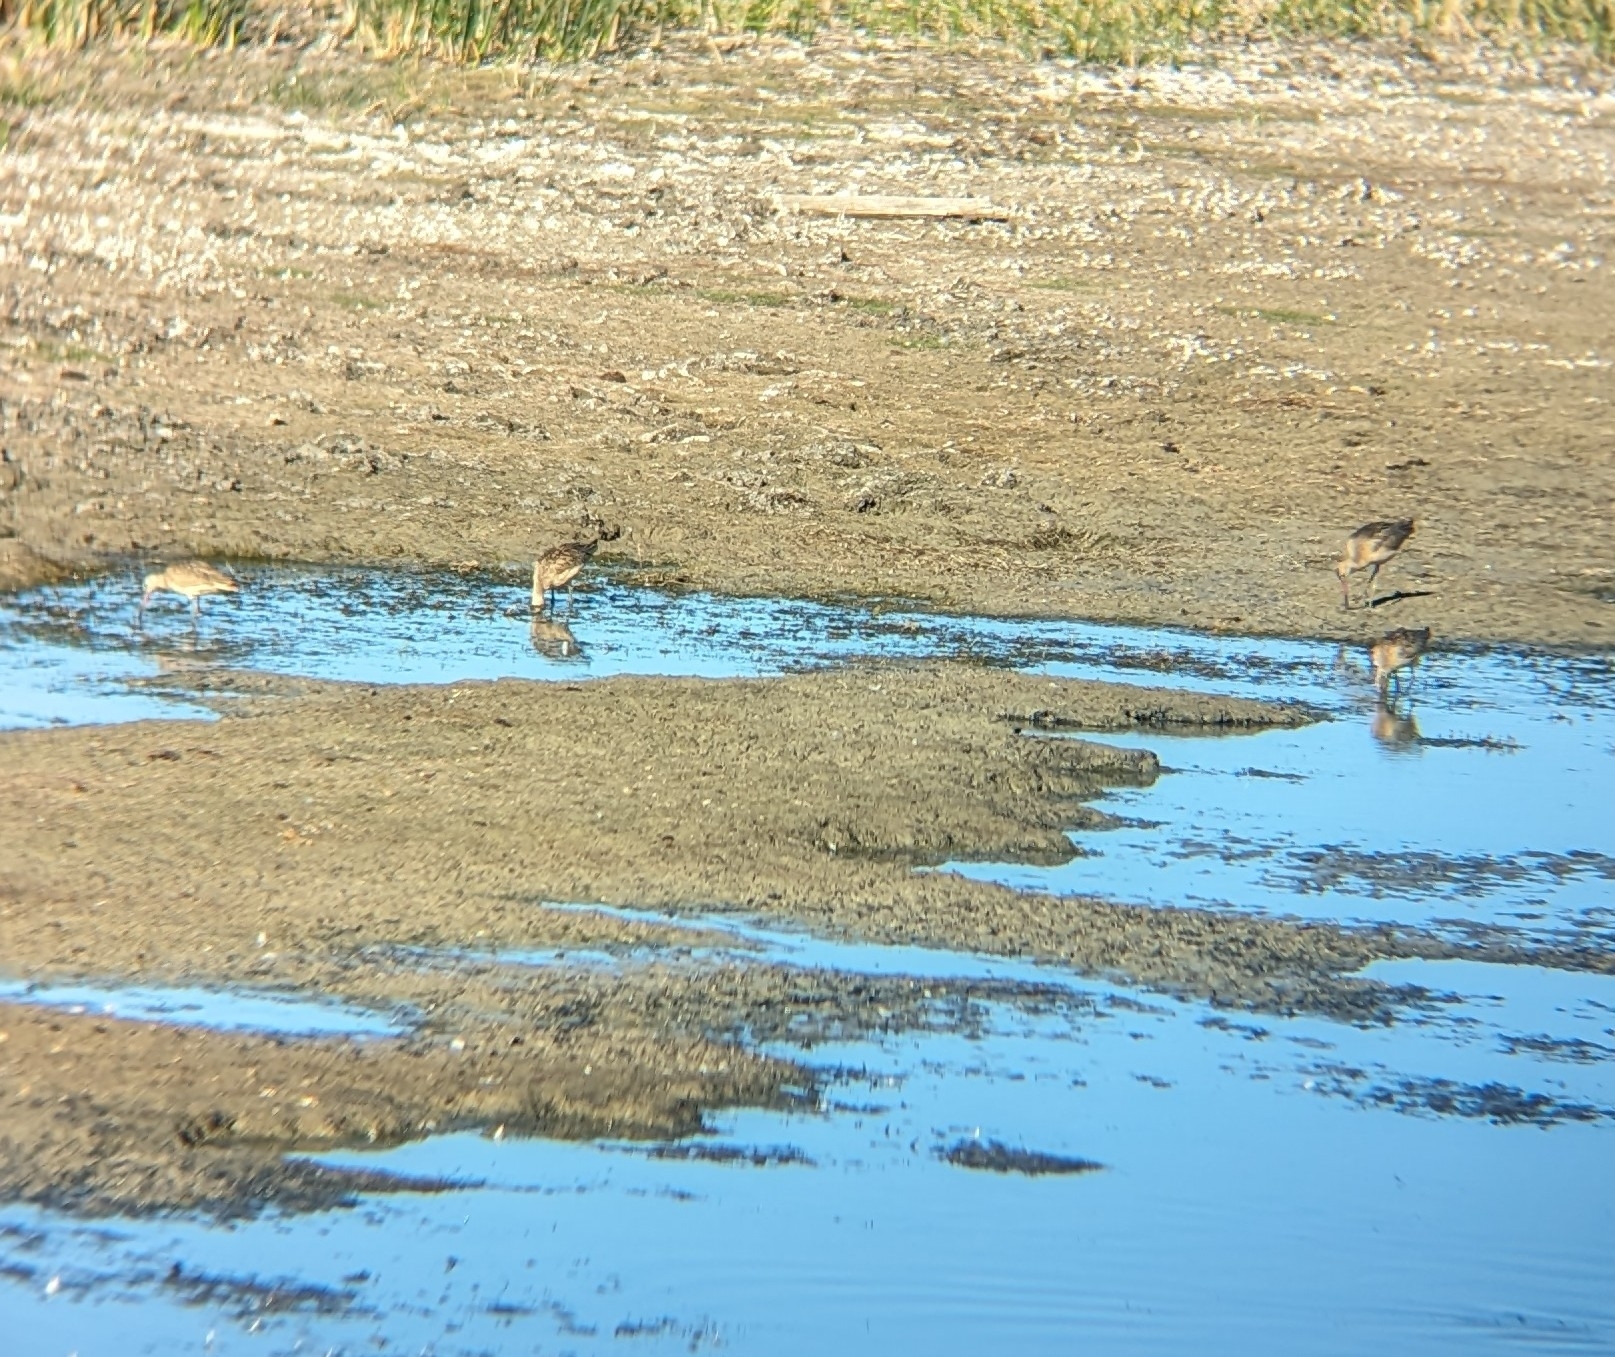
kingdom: Animalia
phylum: Chordata
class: Aves
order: Charadriiformes
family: Scolopacidae
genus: Limosa
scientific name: Limosa fedoa
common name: Marbled godwit
